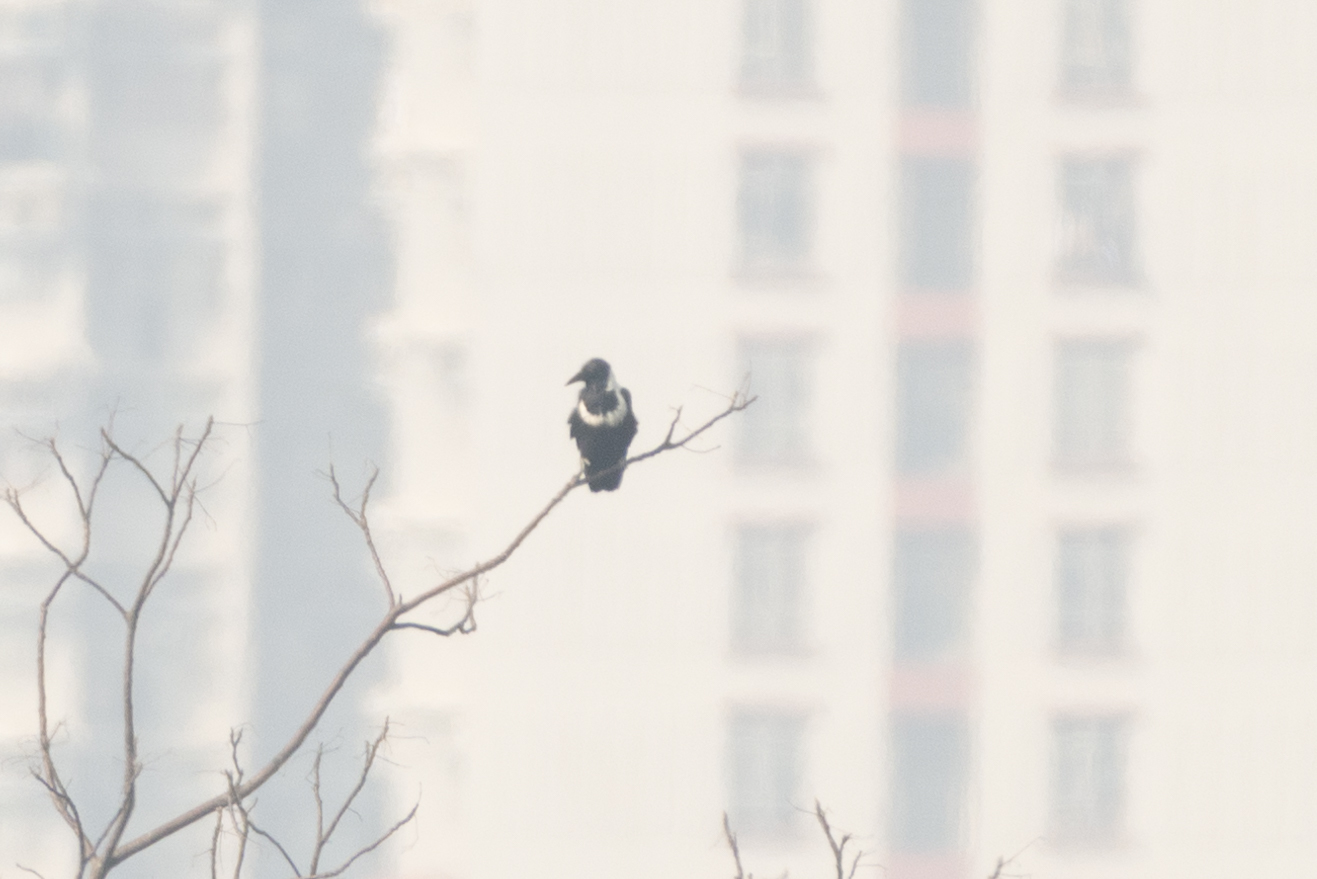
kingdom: Animalia
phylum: Chordata
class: Aves
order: Passeriformes
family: Corvidae
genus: Corvus
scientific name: Corvus pectoralis
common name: Collared crow
